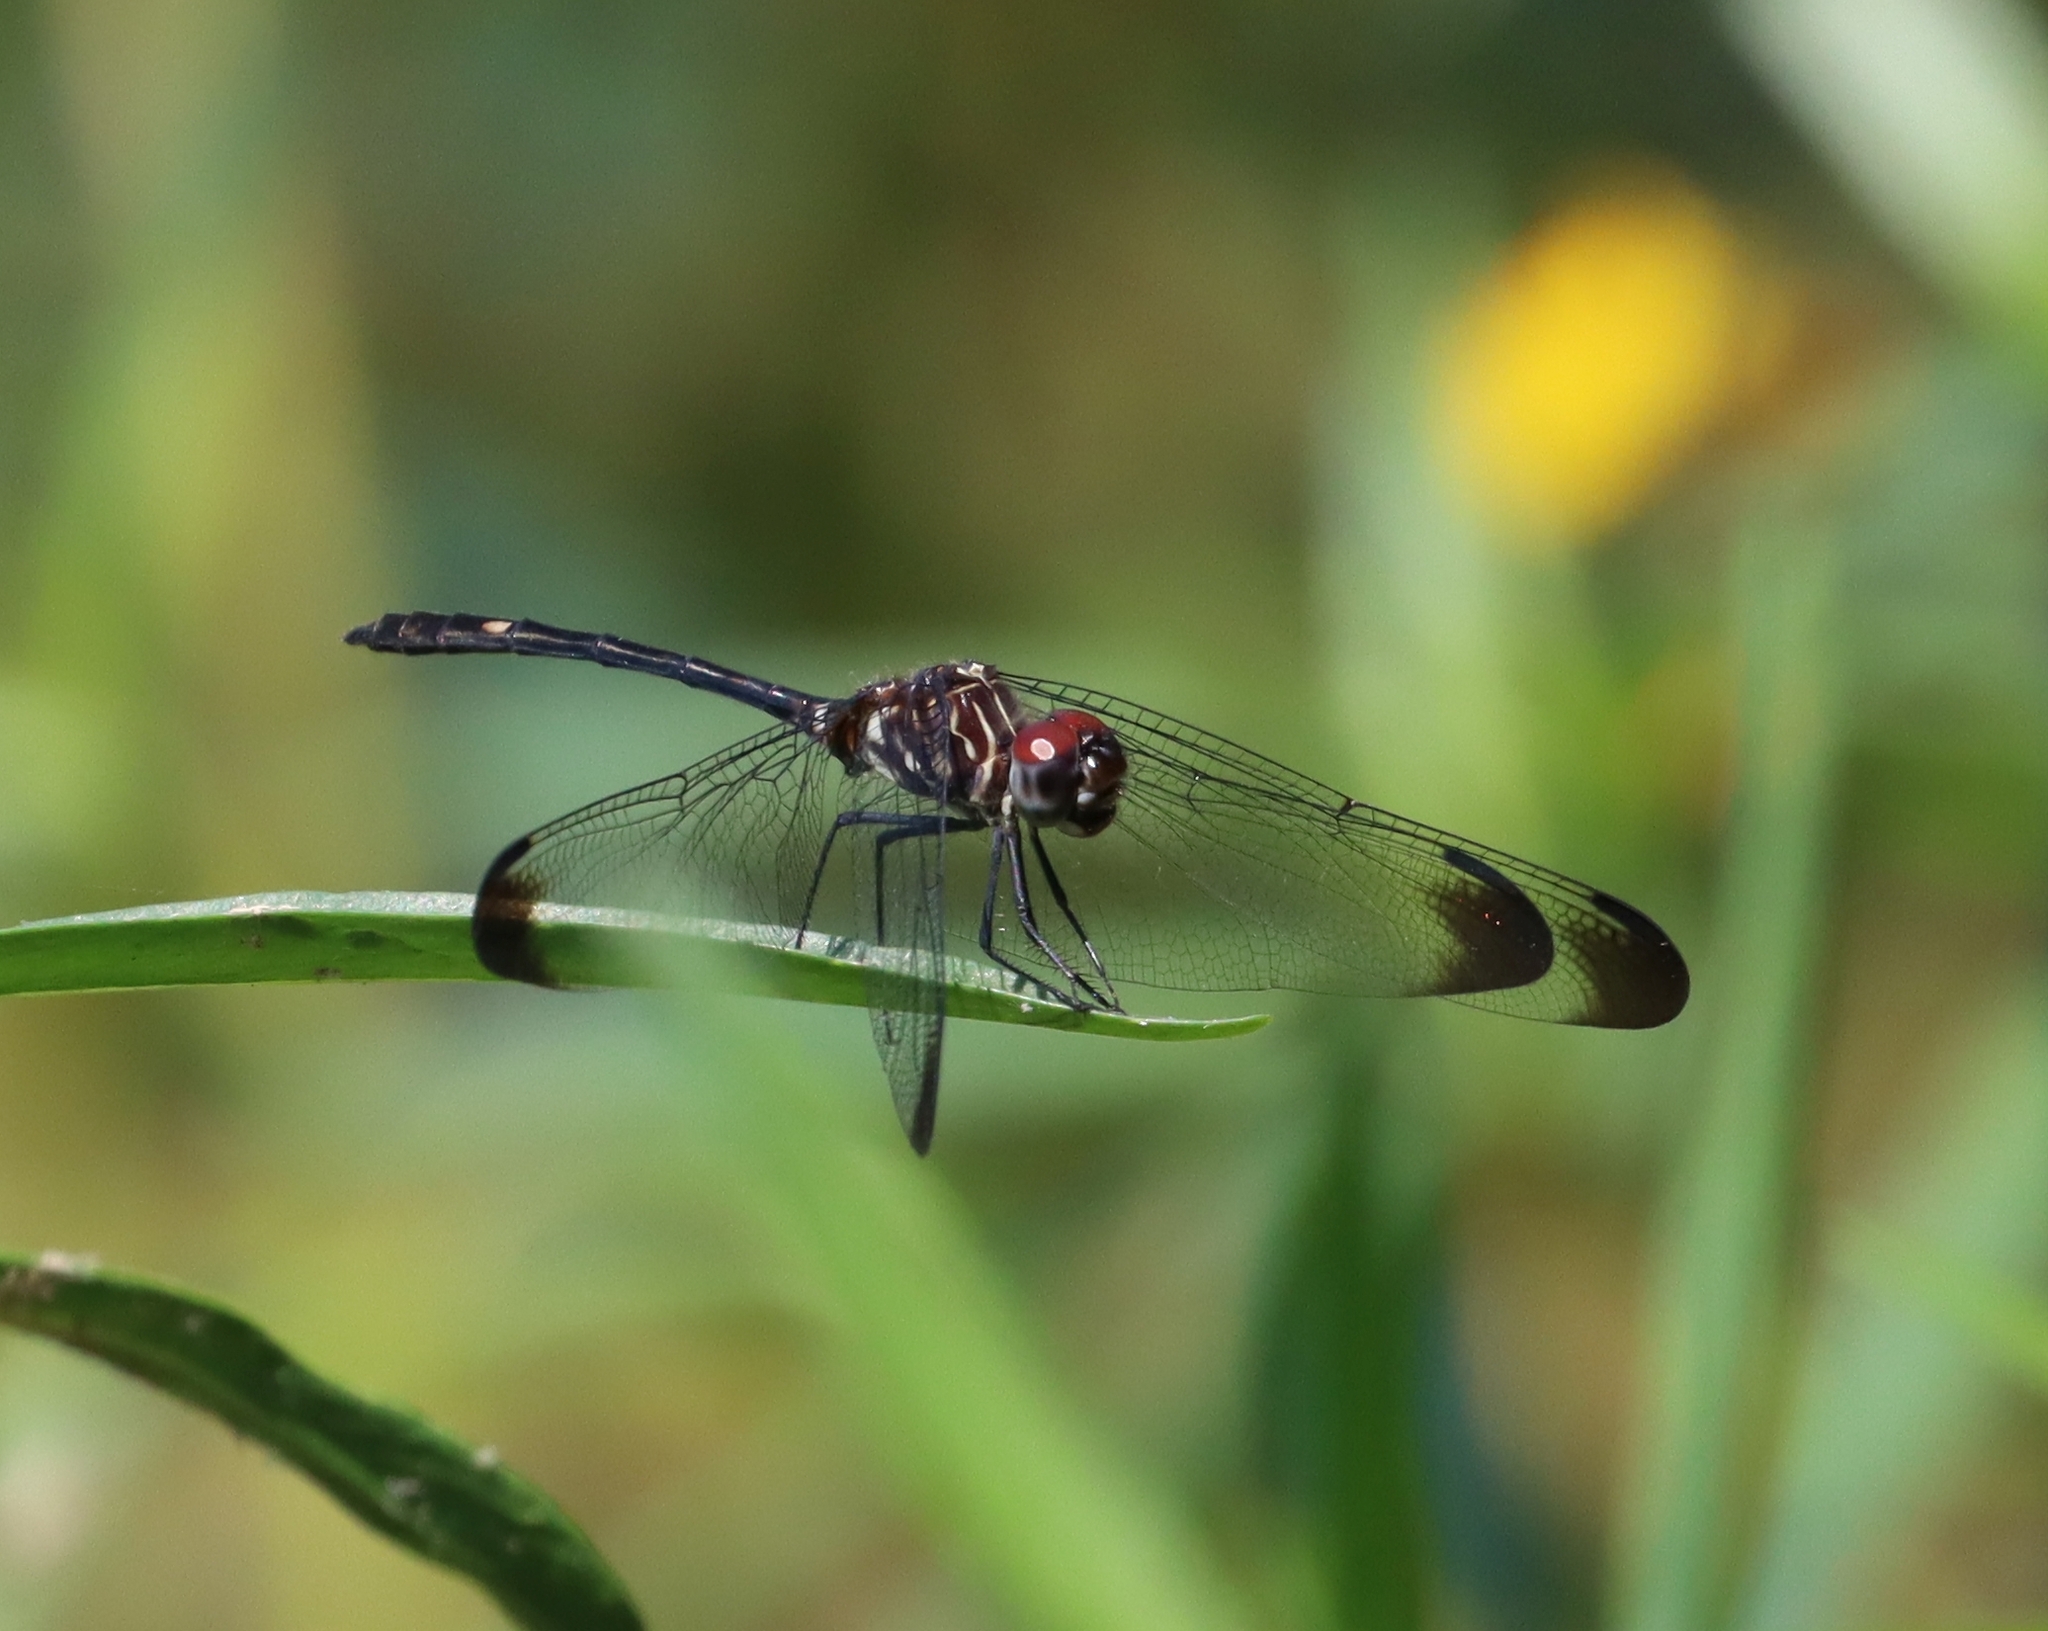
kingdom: Animalia
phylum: Arthropoda
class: Insecta
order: Odonata
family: Libellulidae
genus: Dythemis
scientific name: Dythemis velox
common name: Swift setwing
